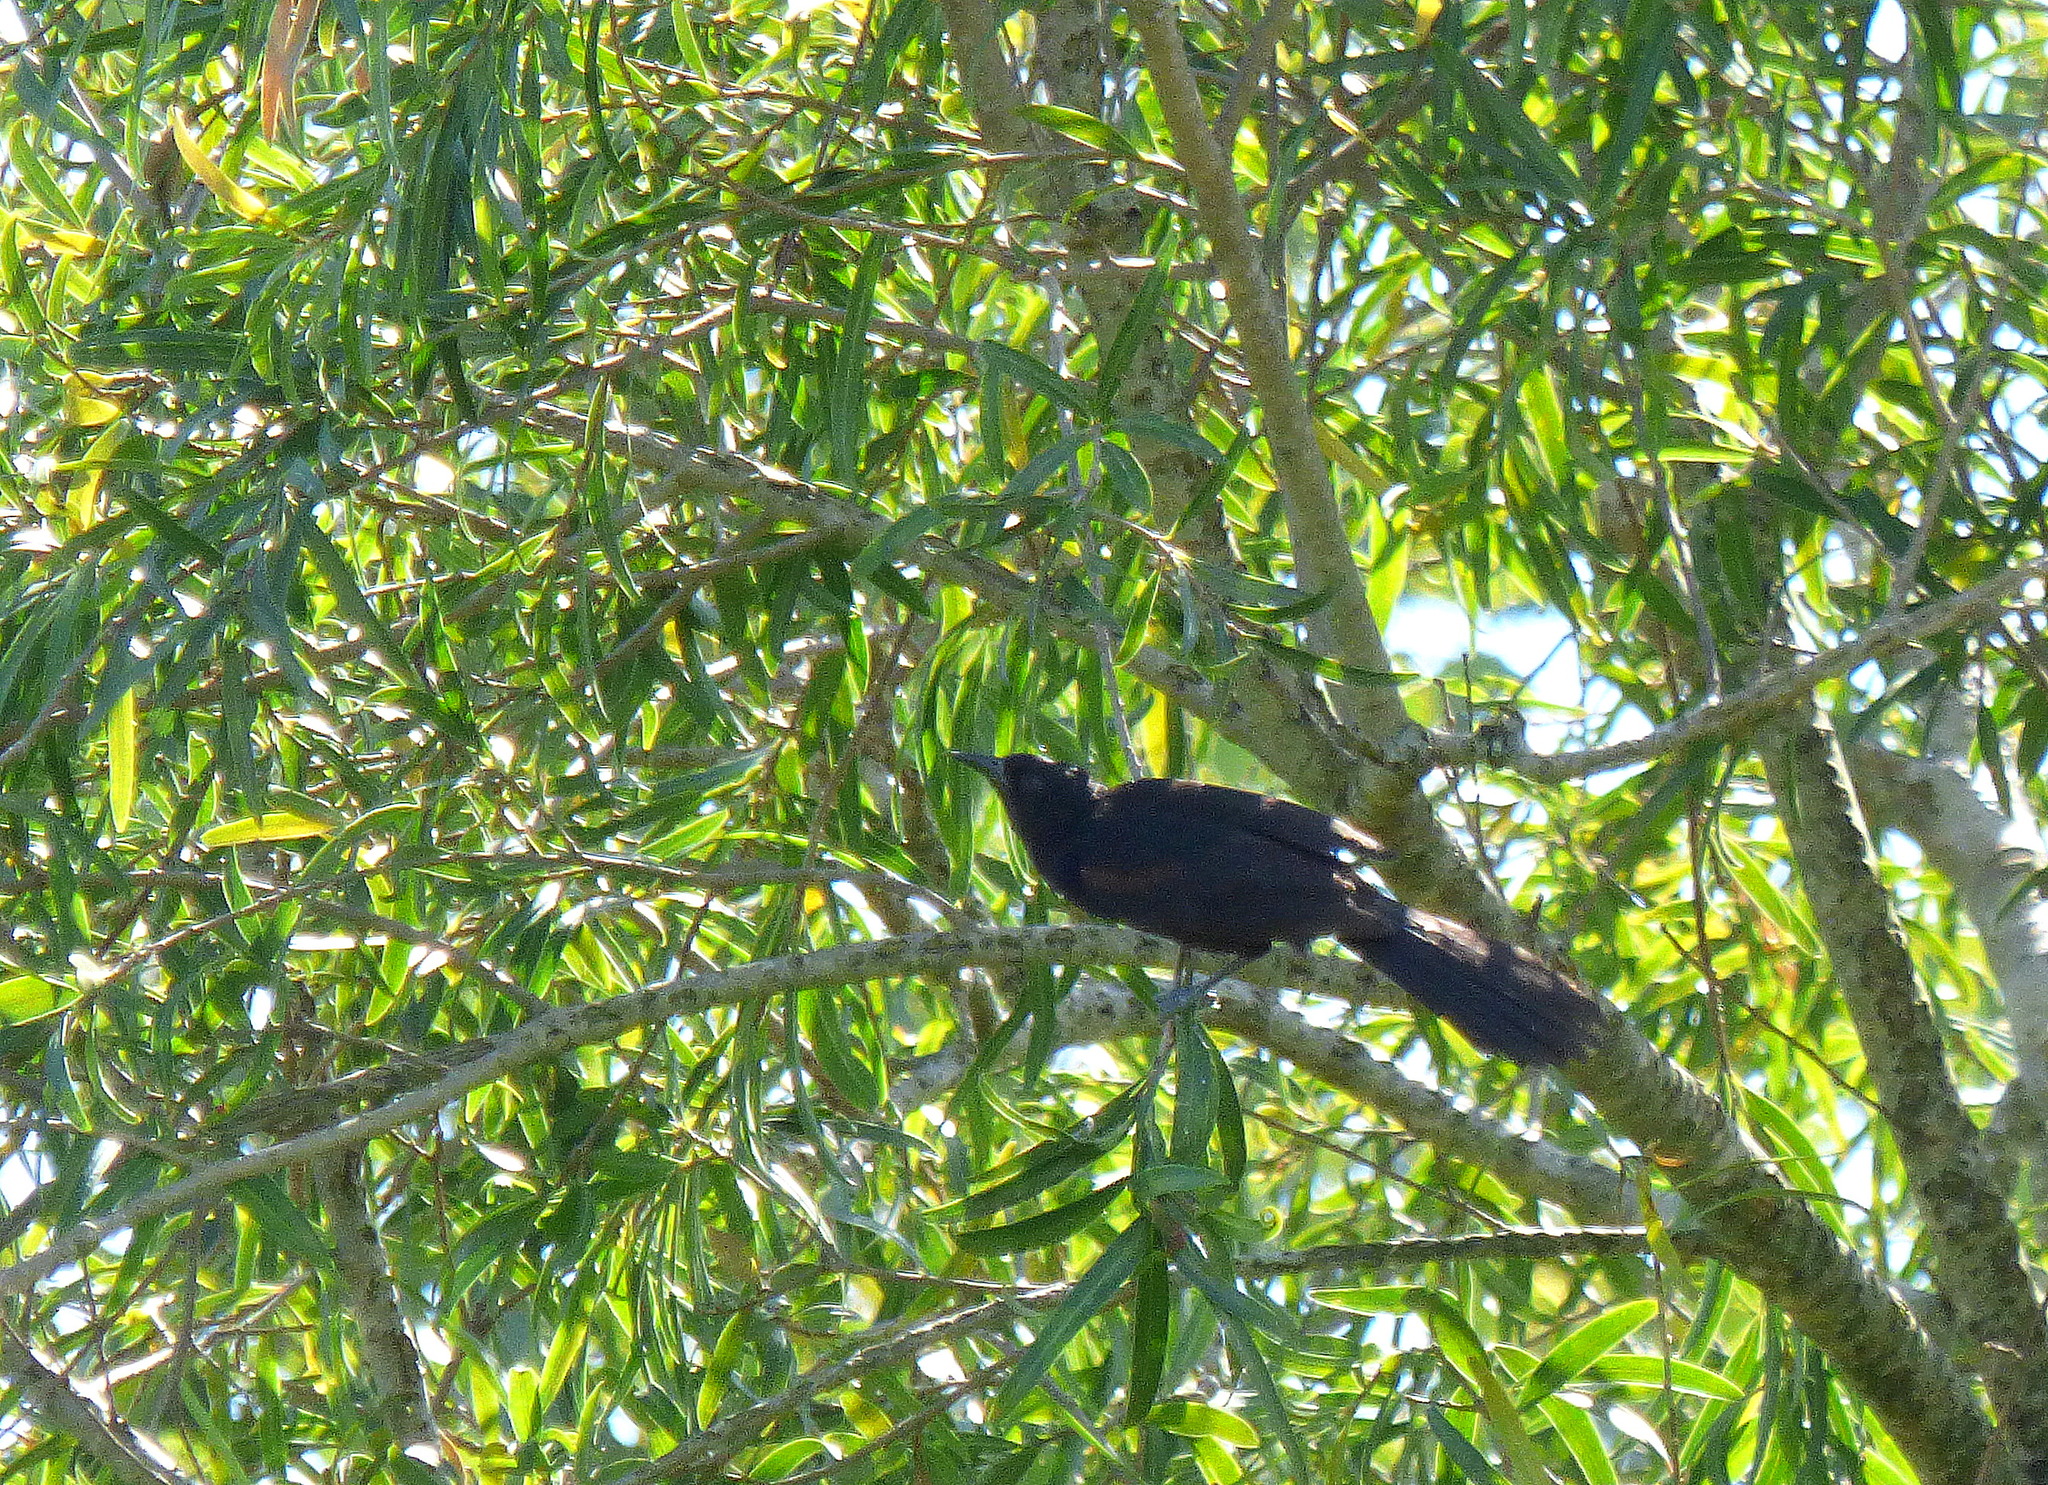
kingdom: Animalia
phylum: Chordata
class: Aves
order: Passeriformes
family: Icteridae
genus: Icterus
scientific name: Icterus cayanensis
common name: Epaulet oriole
